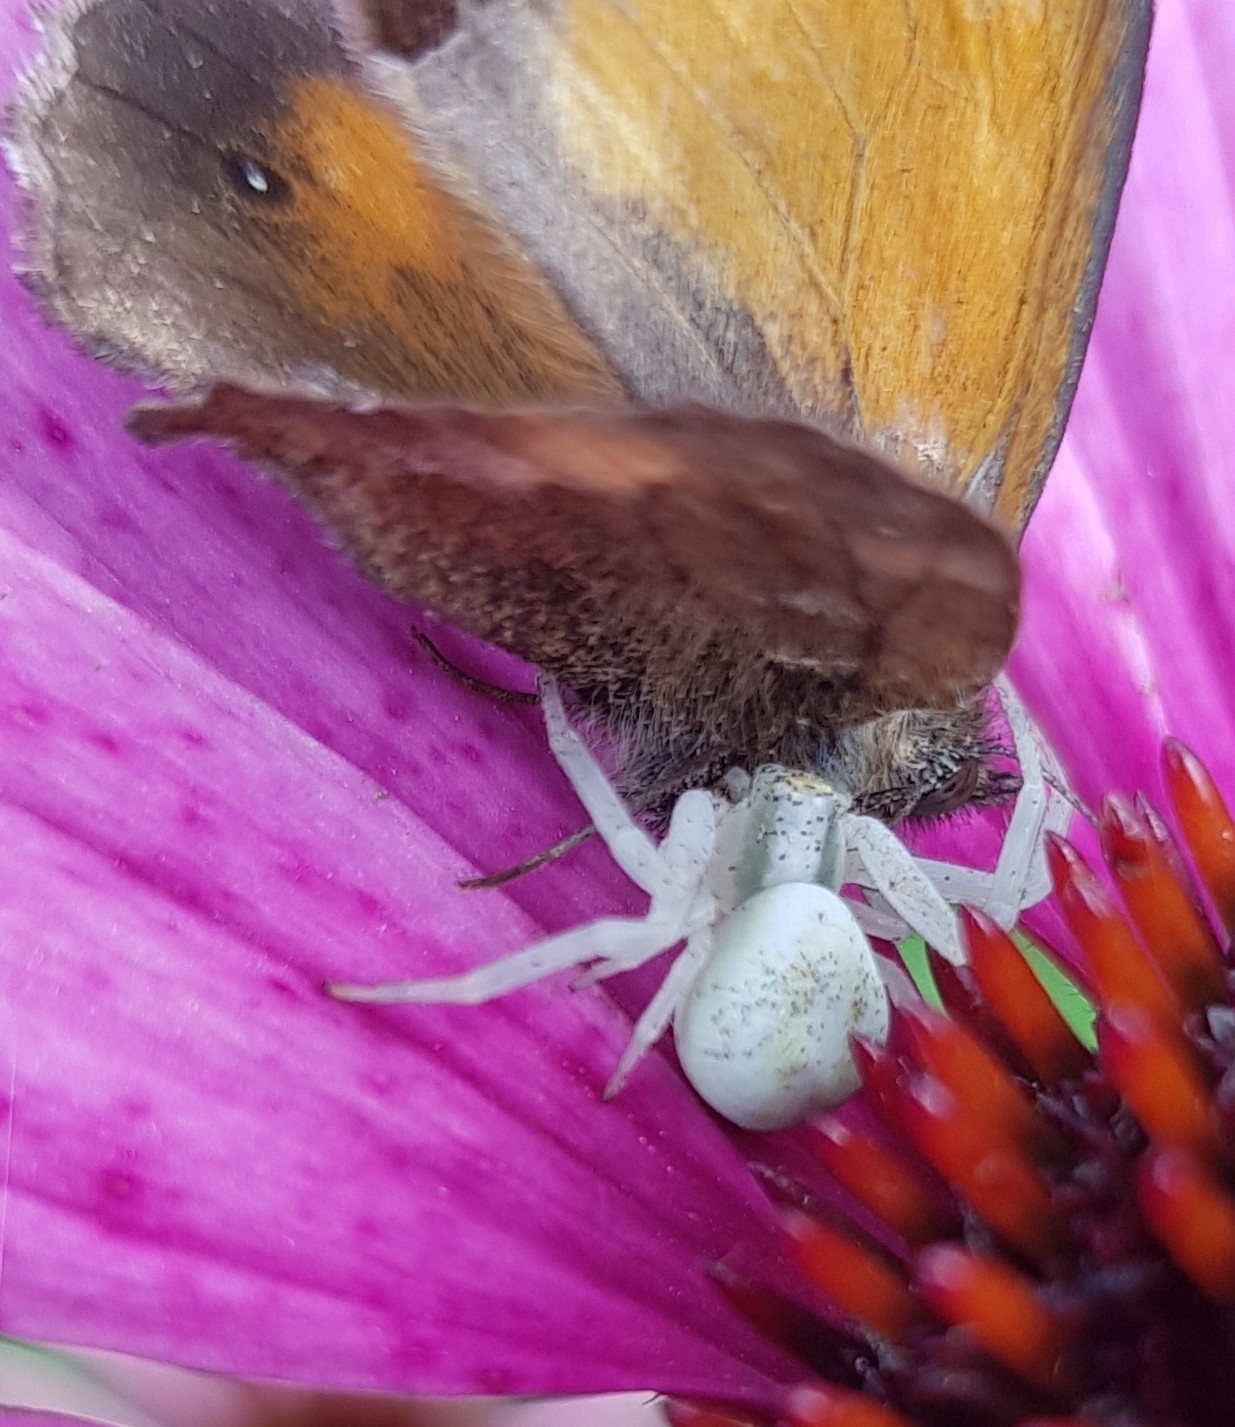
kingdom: Animalia
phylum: Arthropoda
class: Arachnida
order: Araneae
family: Thomisidae
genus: Misumena
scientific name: Misumena vatia
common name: Goldenrod crab spider
